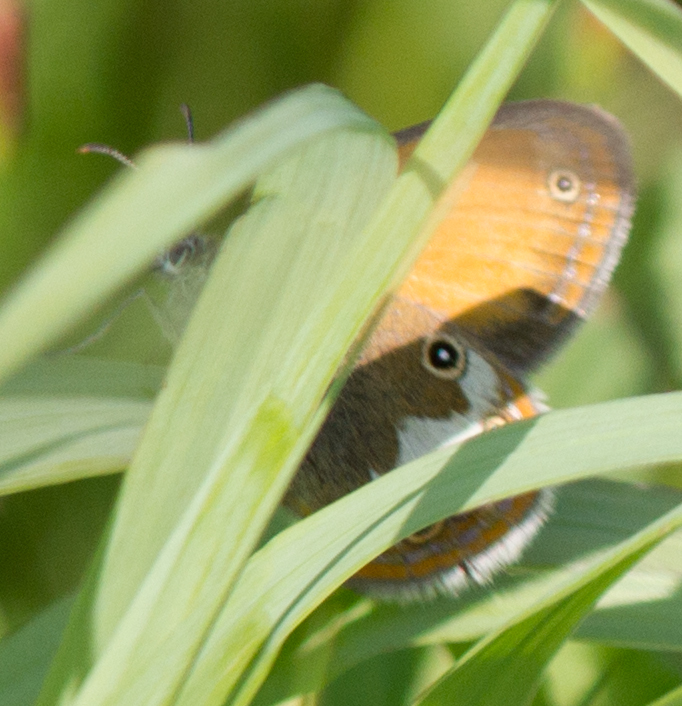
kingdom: Animalia
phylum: Arthropoda
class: Insecta
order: Lepidoptera
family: Nymphalidae
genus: Coenonympha
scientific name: Coenonympha arcania
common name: Pearly heath
